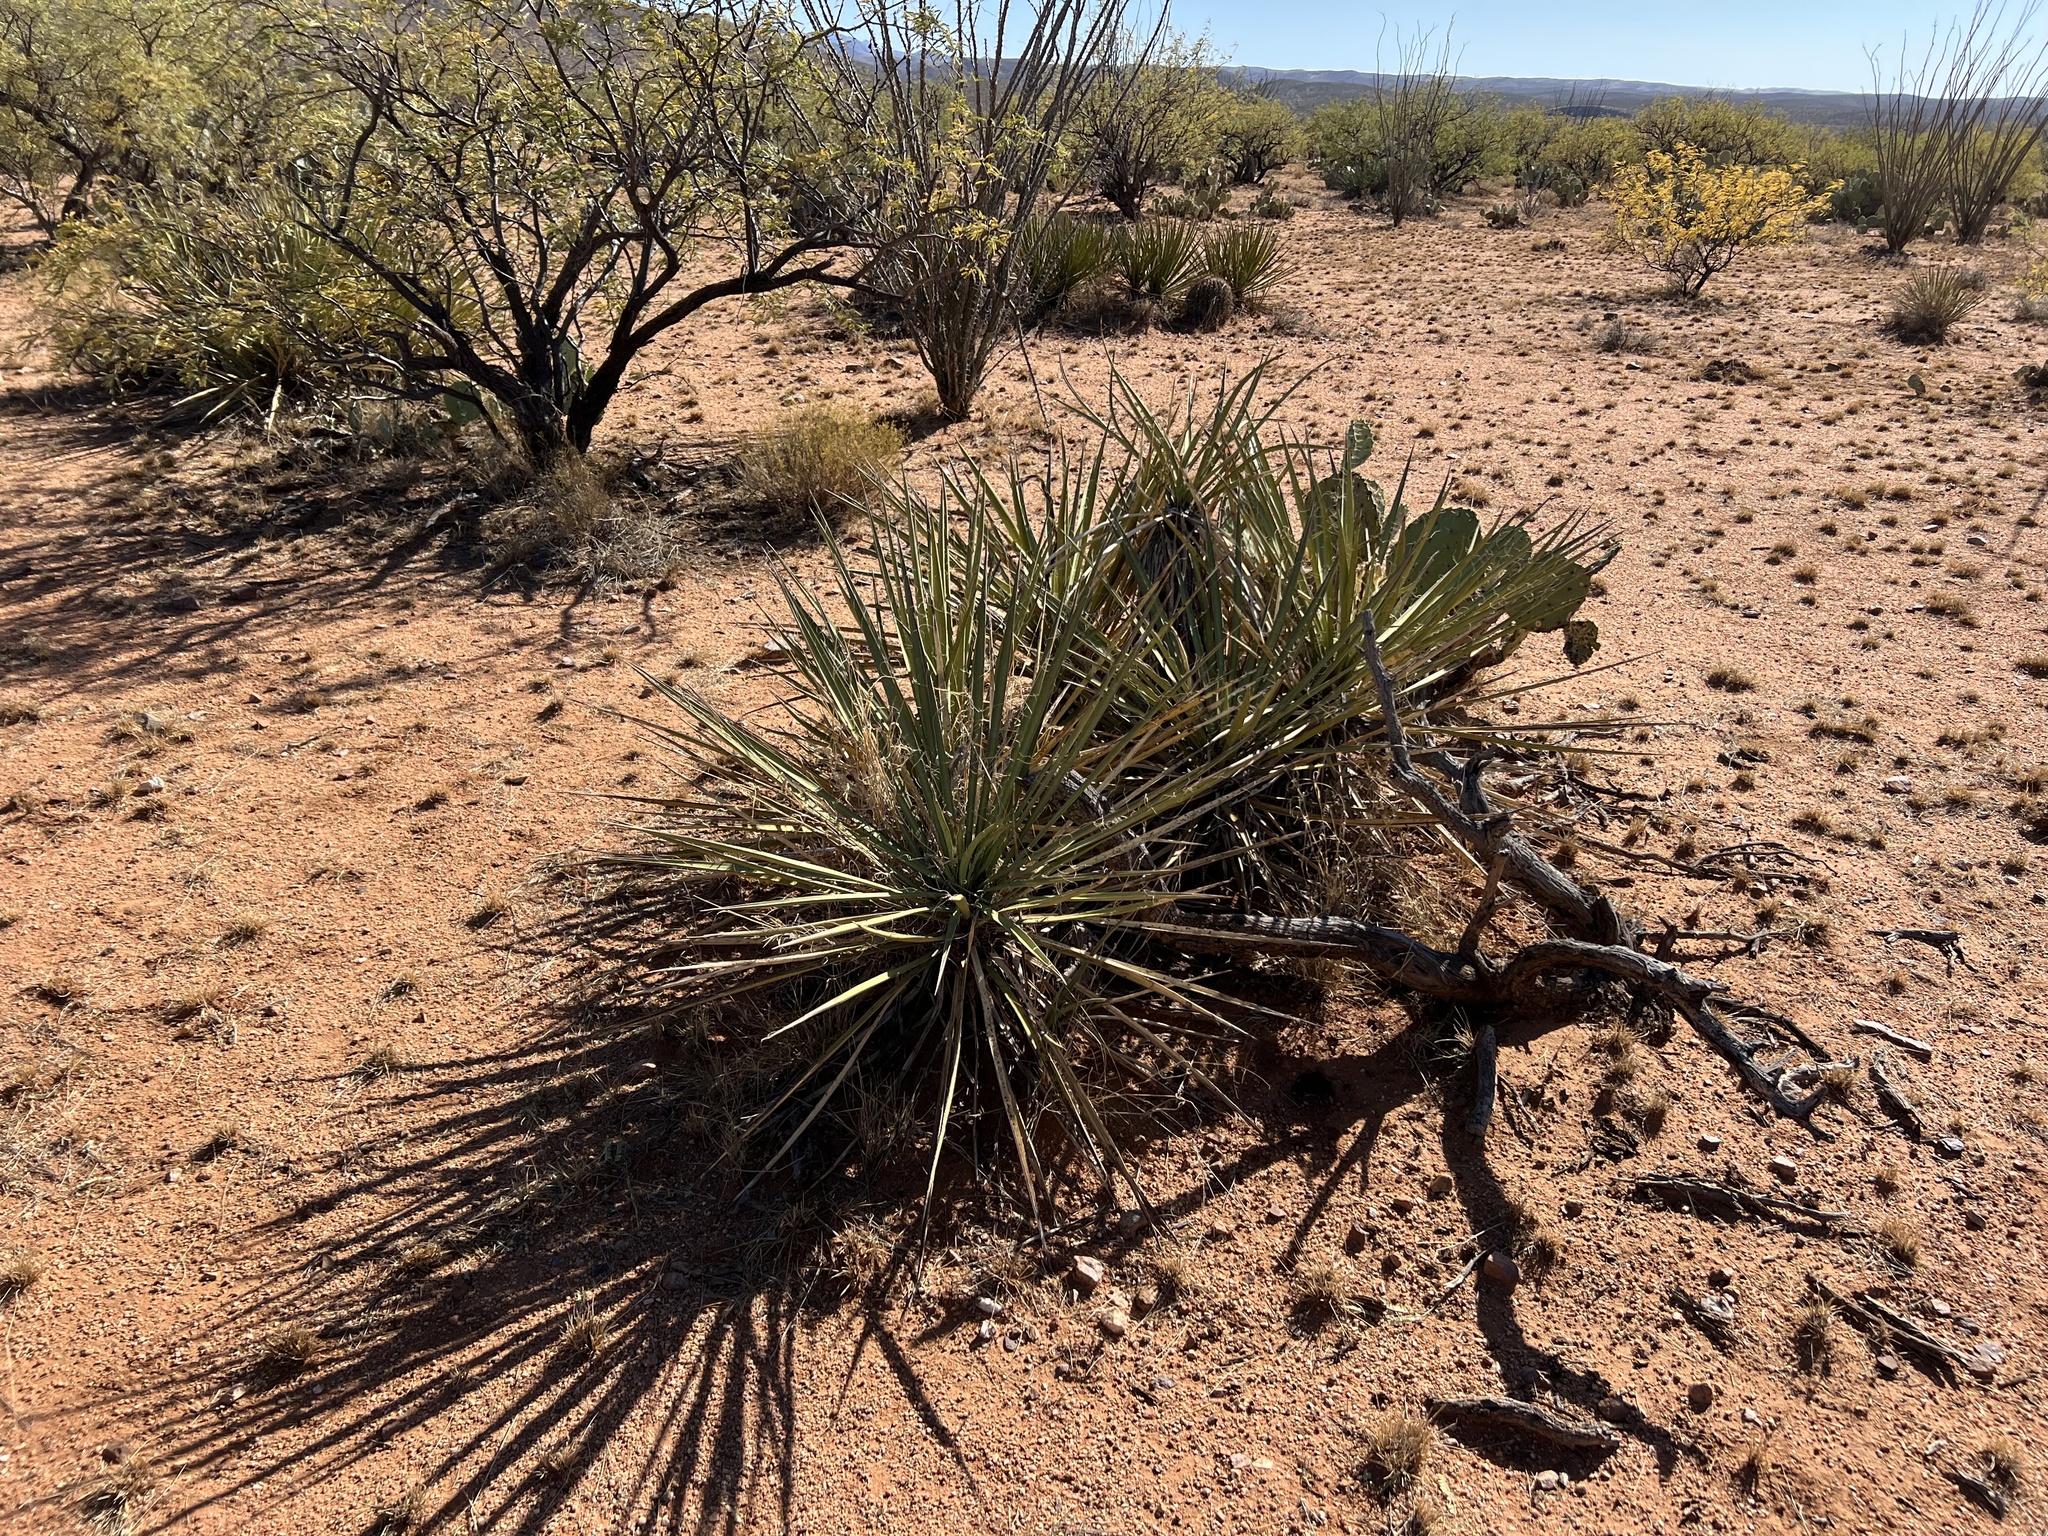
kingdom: Plantae
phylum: Tracheophyta
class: Liliopsida
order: Asparagales
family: Asparagaceae
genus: Yucca
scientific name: Yucca baccata
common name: Banana yucca
